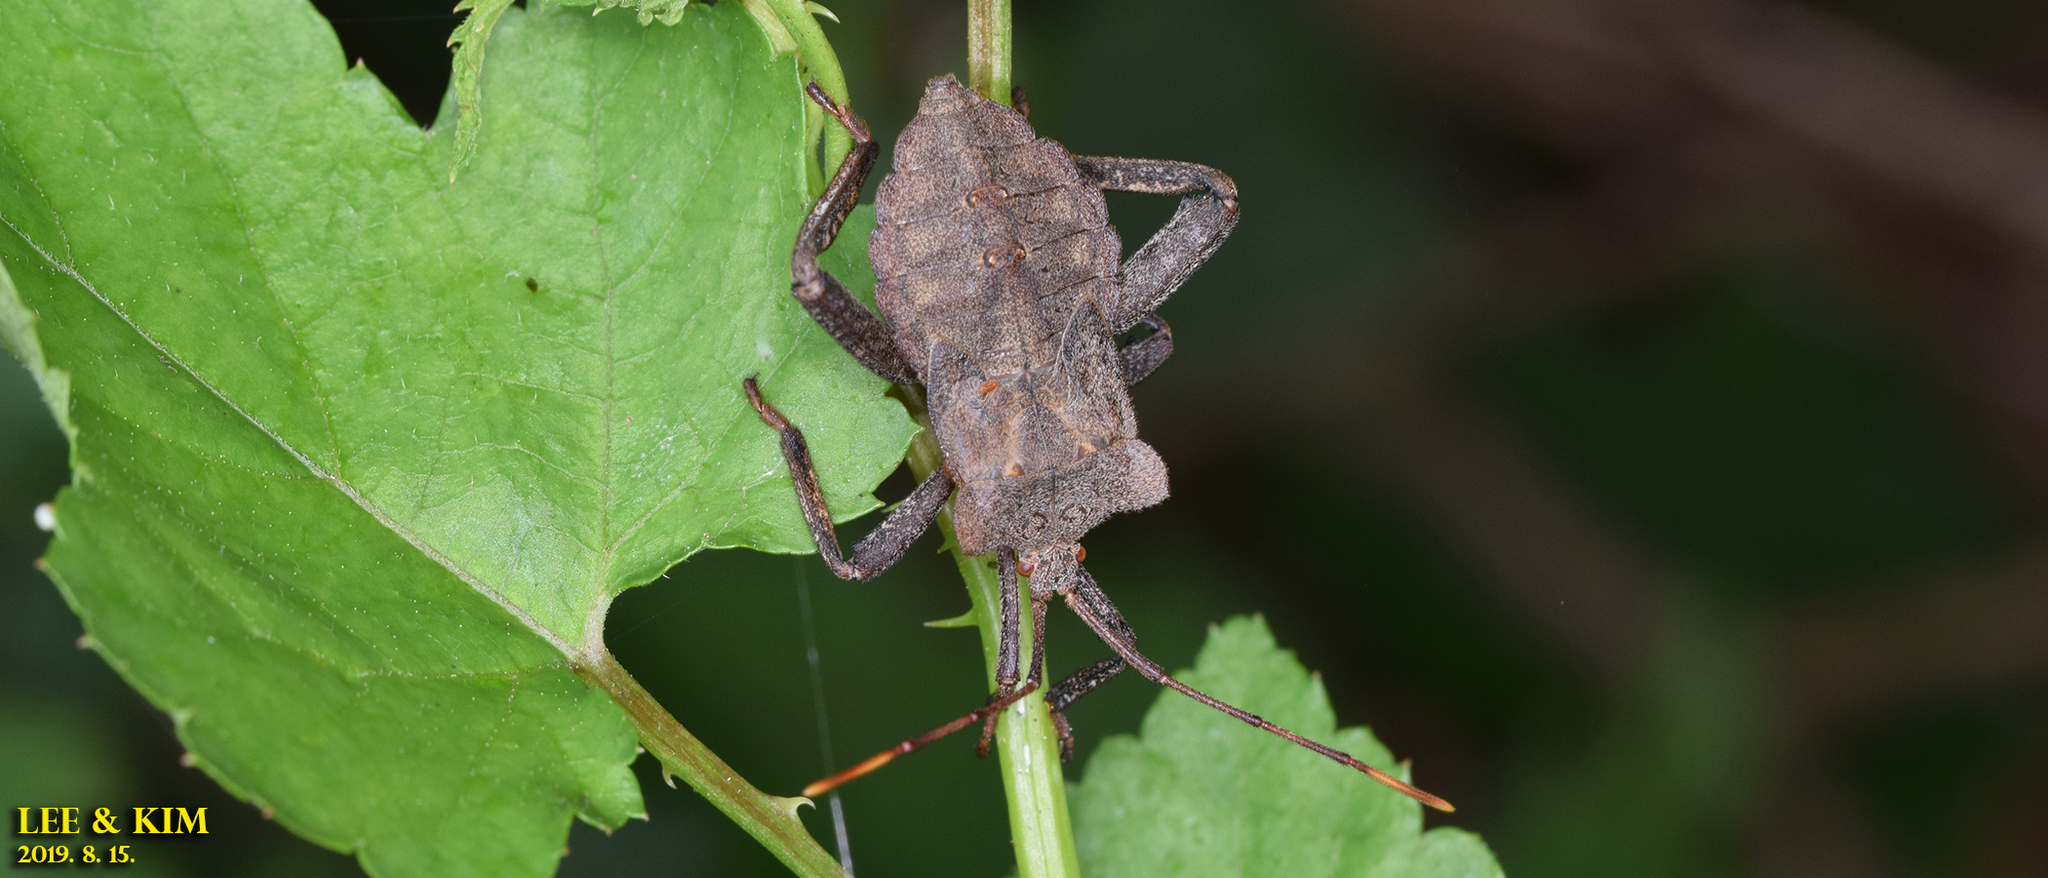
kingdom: Animalia
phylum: Arthropoda
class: Insecta
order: Hemiptera
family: Coreidae
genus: Molipteryx
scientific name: Molipteryx fuliginosa
